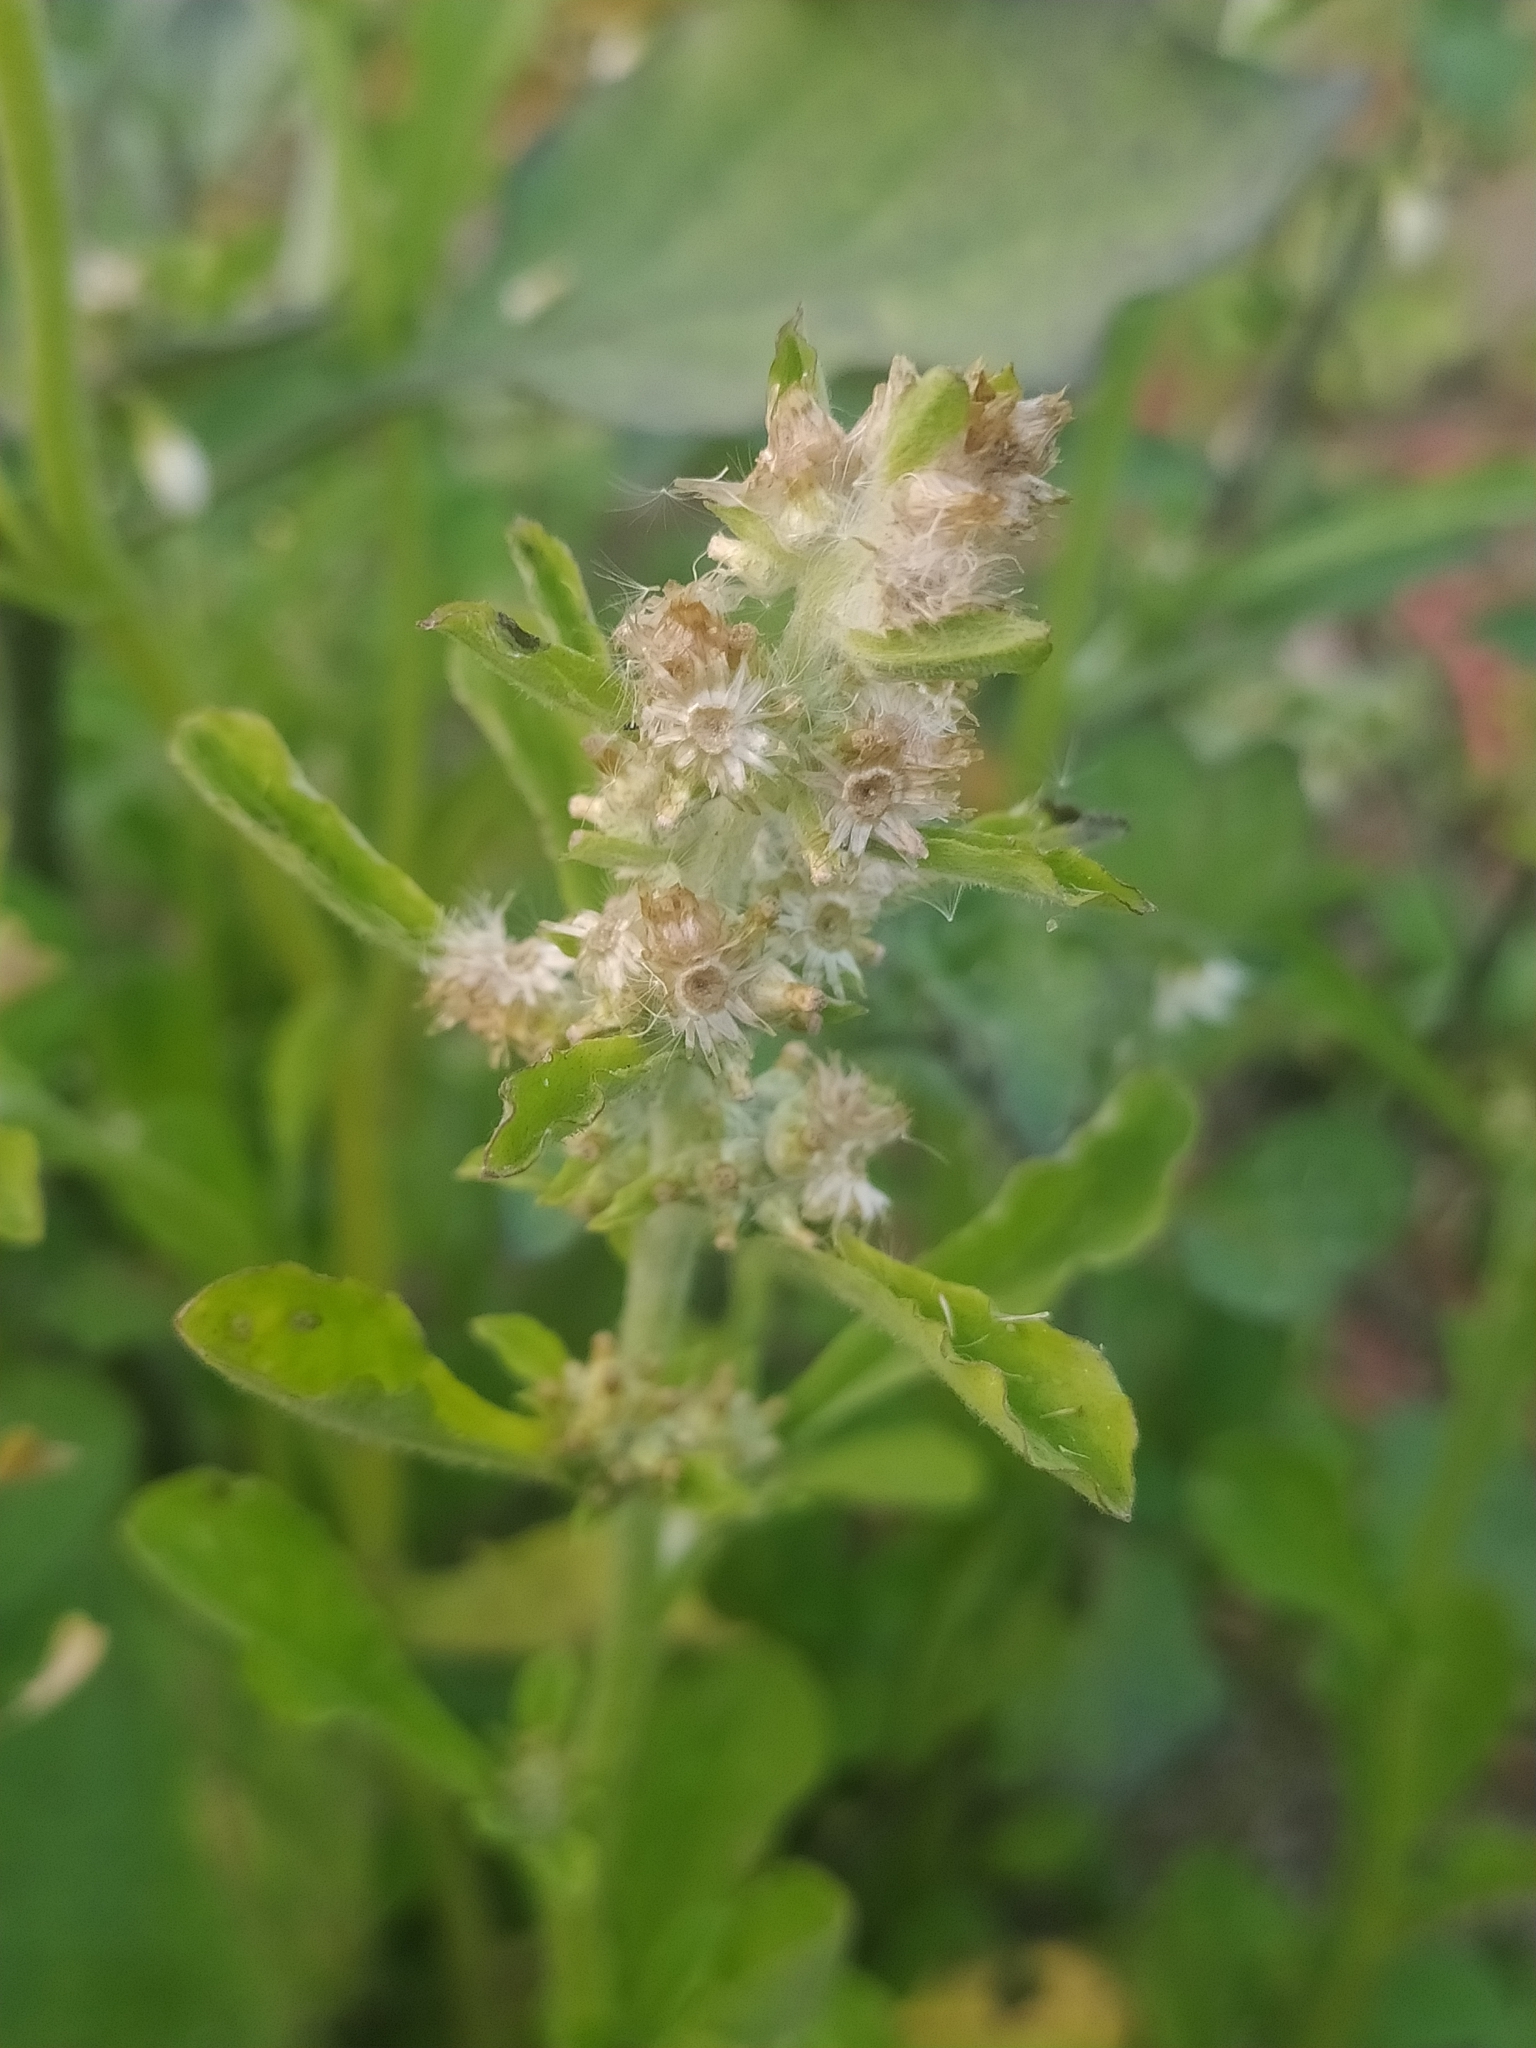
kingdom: Plantae
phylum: Tracheophyta
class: Magnoliopsida
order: Asterales
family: Asteraceae
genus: Gamochaeta
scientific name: Gamochaeta pensylvanica
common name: Pennsylvania everlasting
